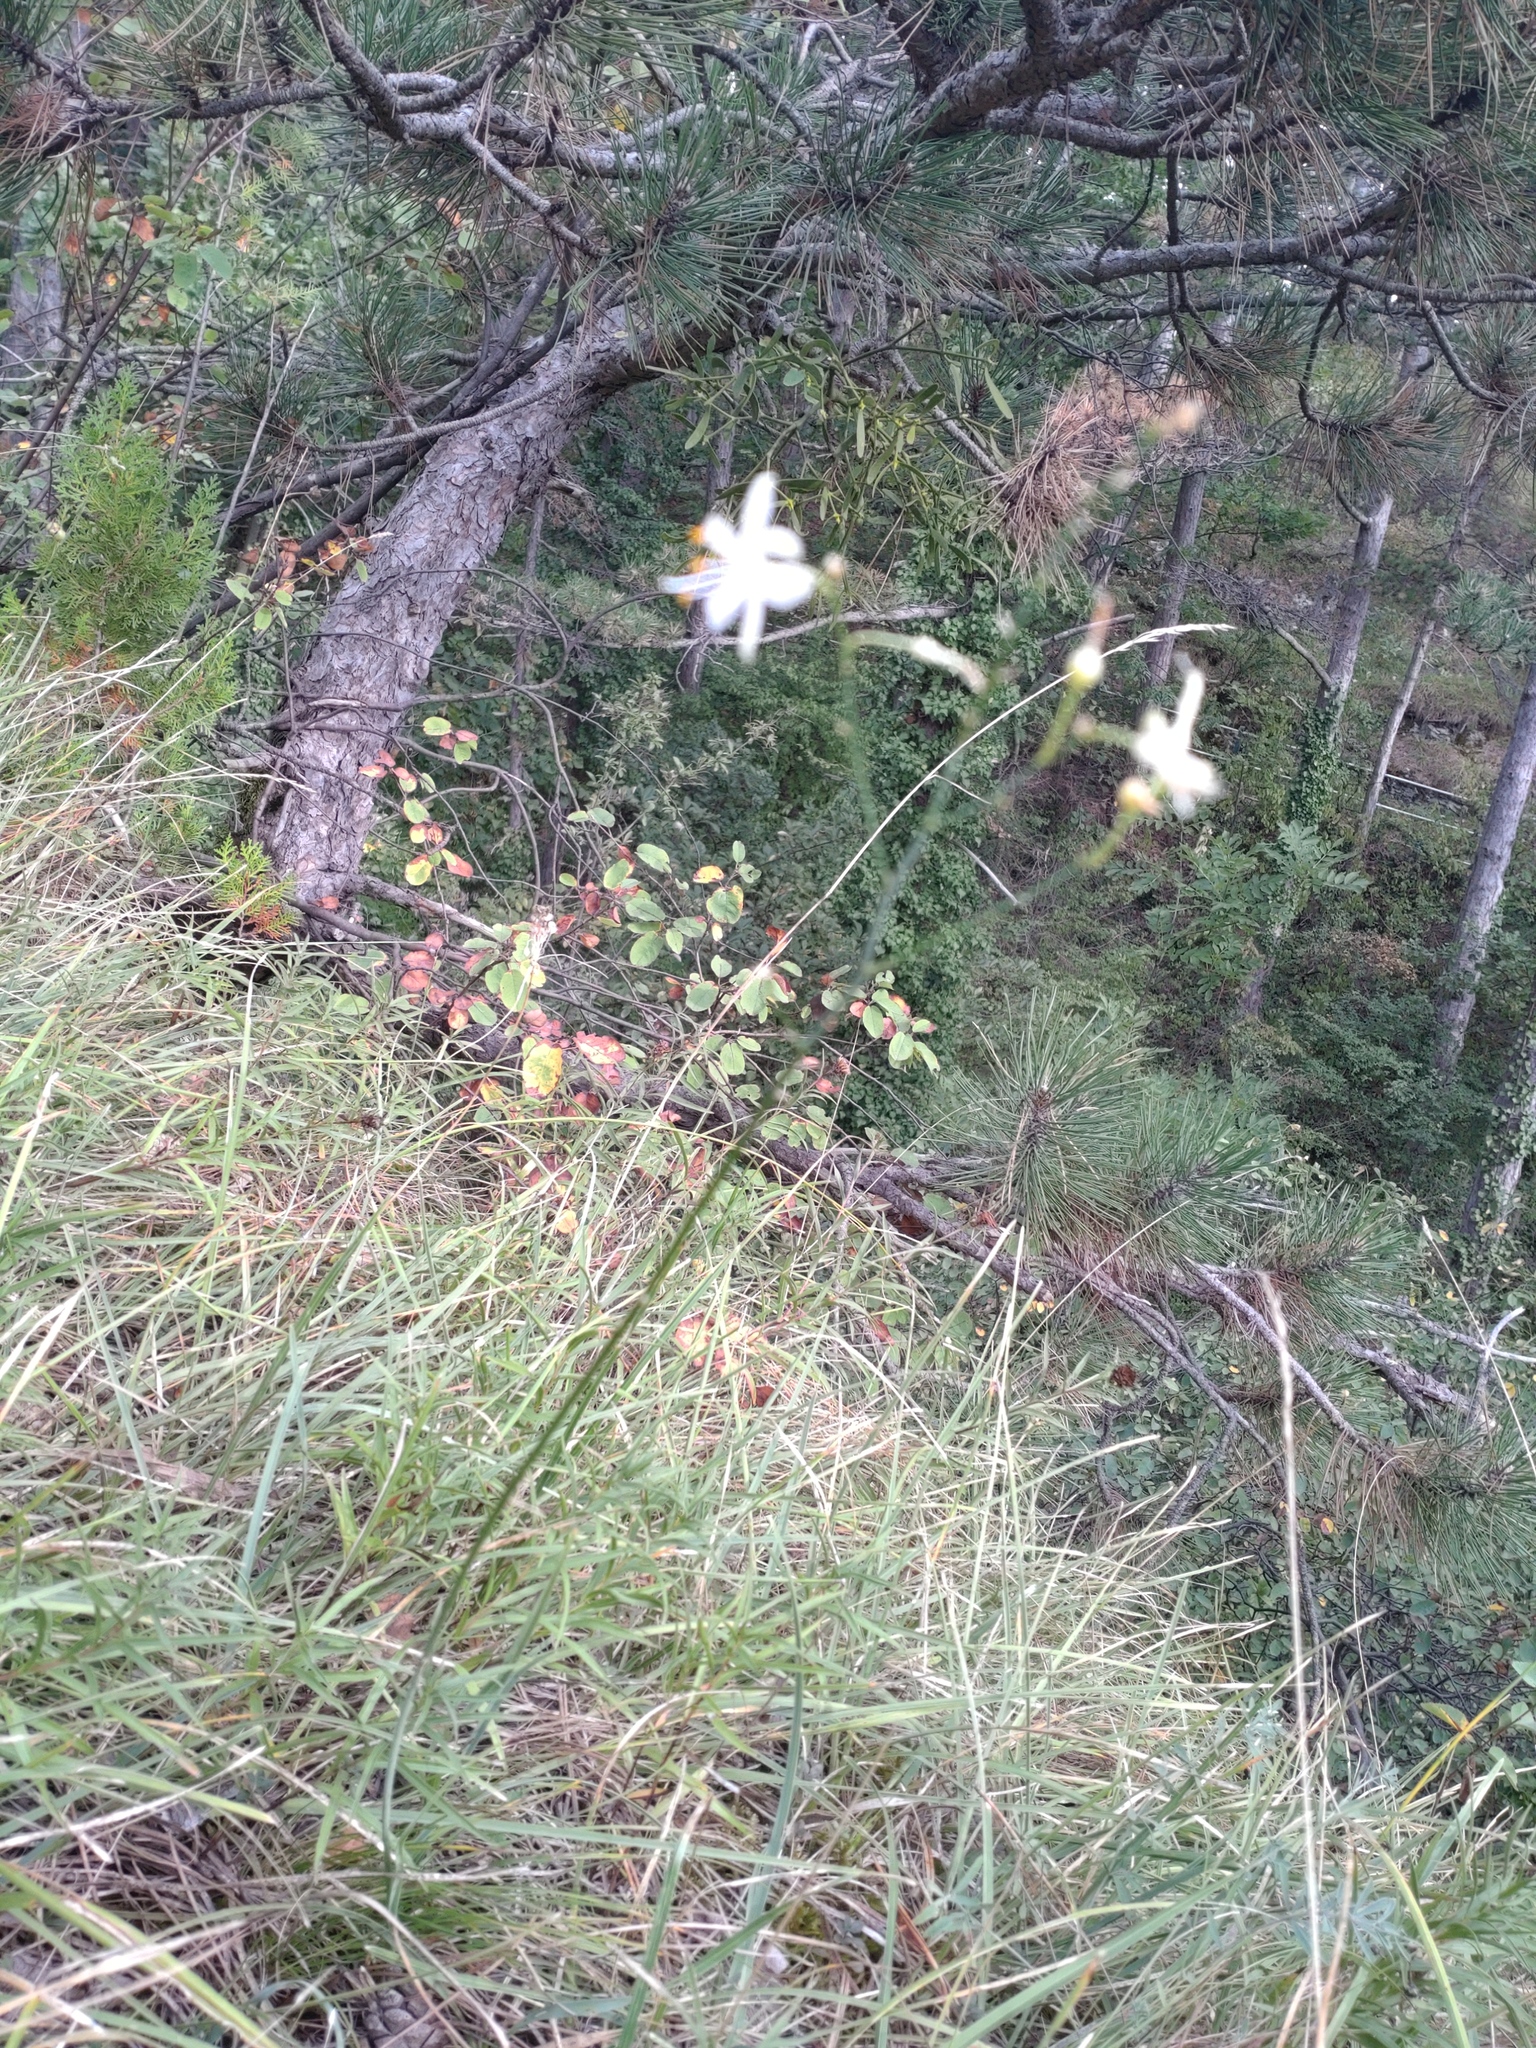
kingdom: Plantae
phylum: Tracheophyta
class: Liliopsida
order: Asparagales
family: Asparagaceae
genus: Anthericum
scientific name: Anthericum ramosum
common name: Branched st. bernard's-lily
